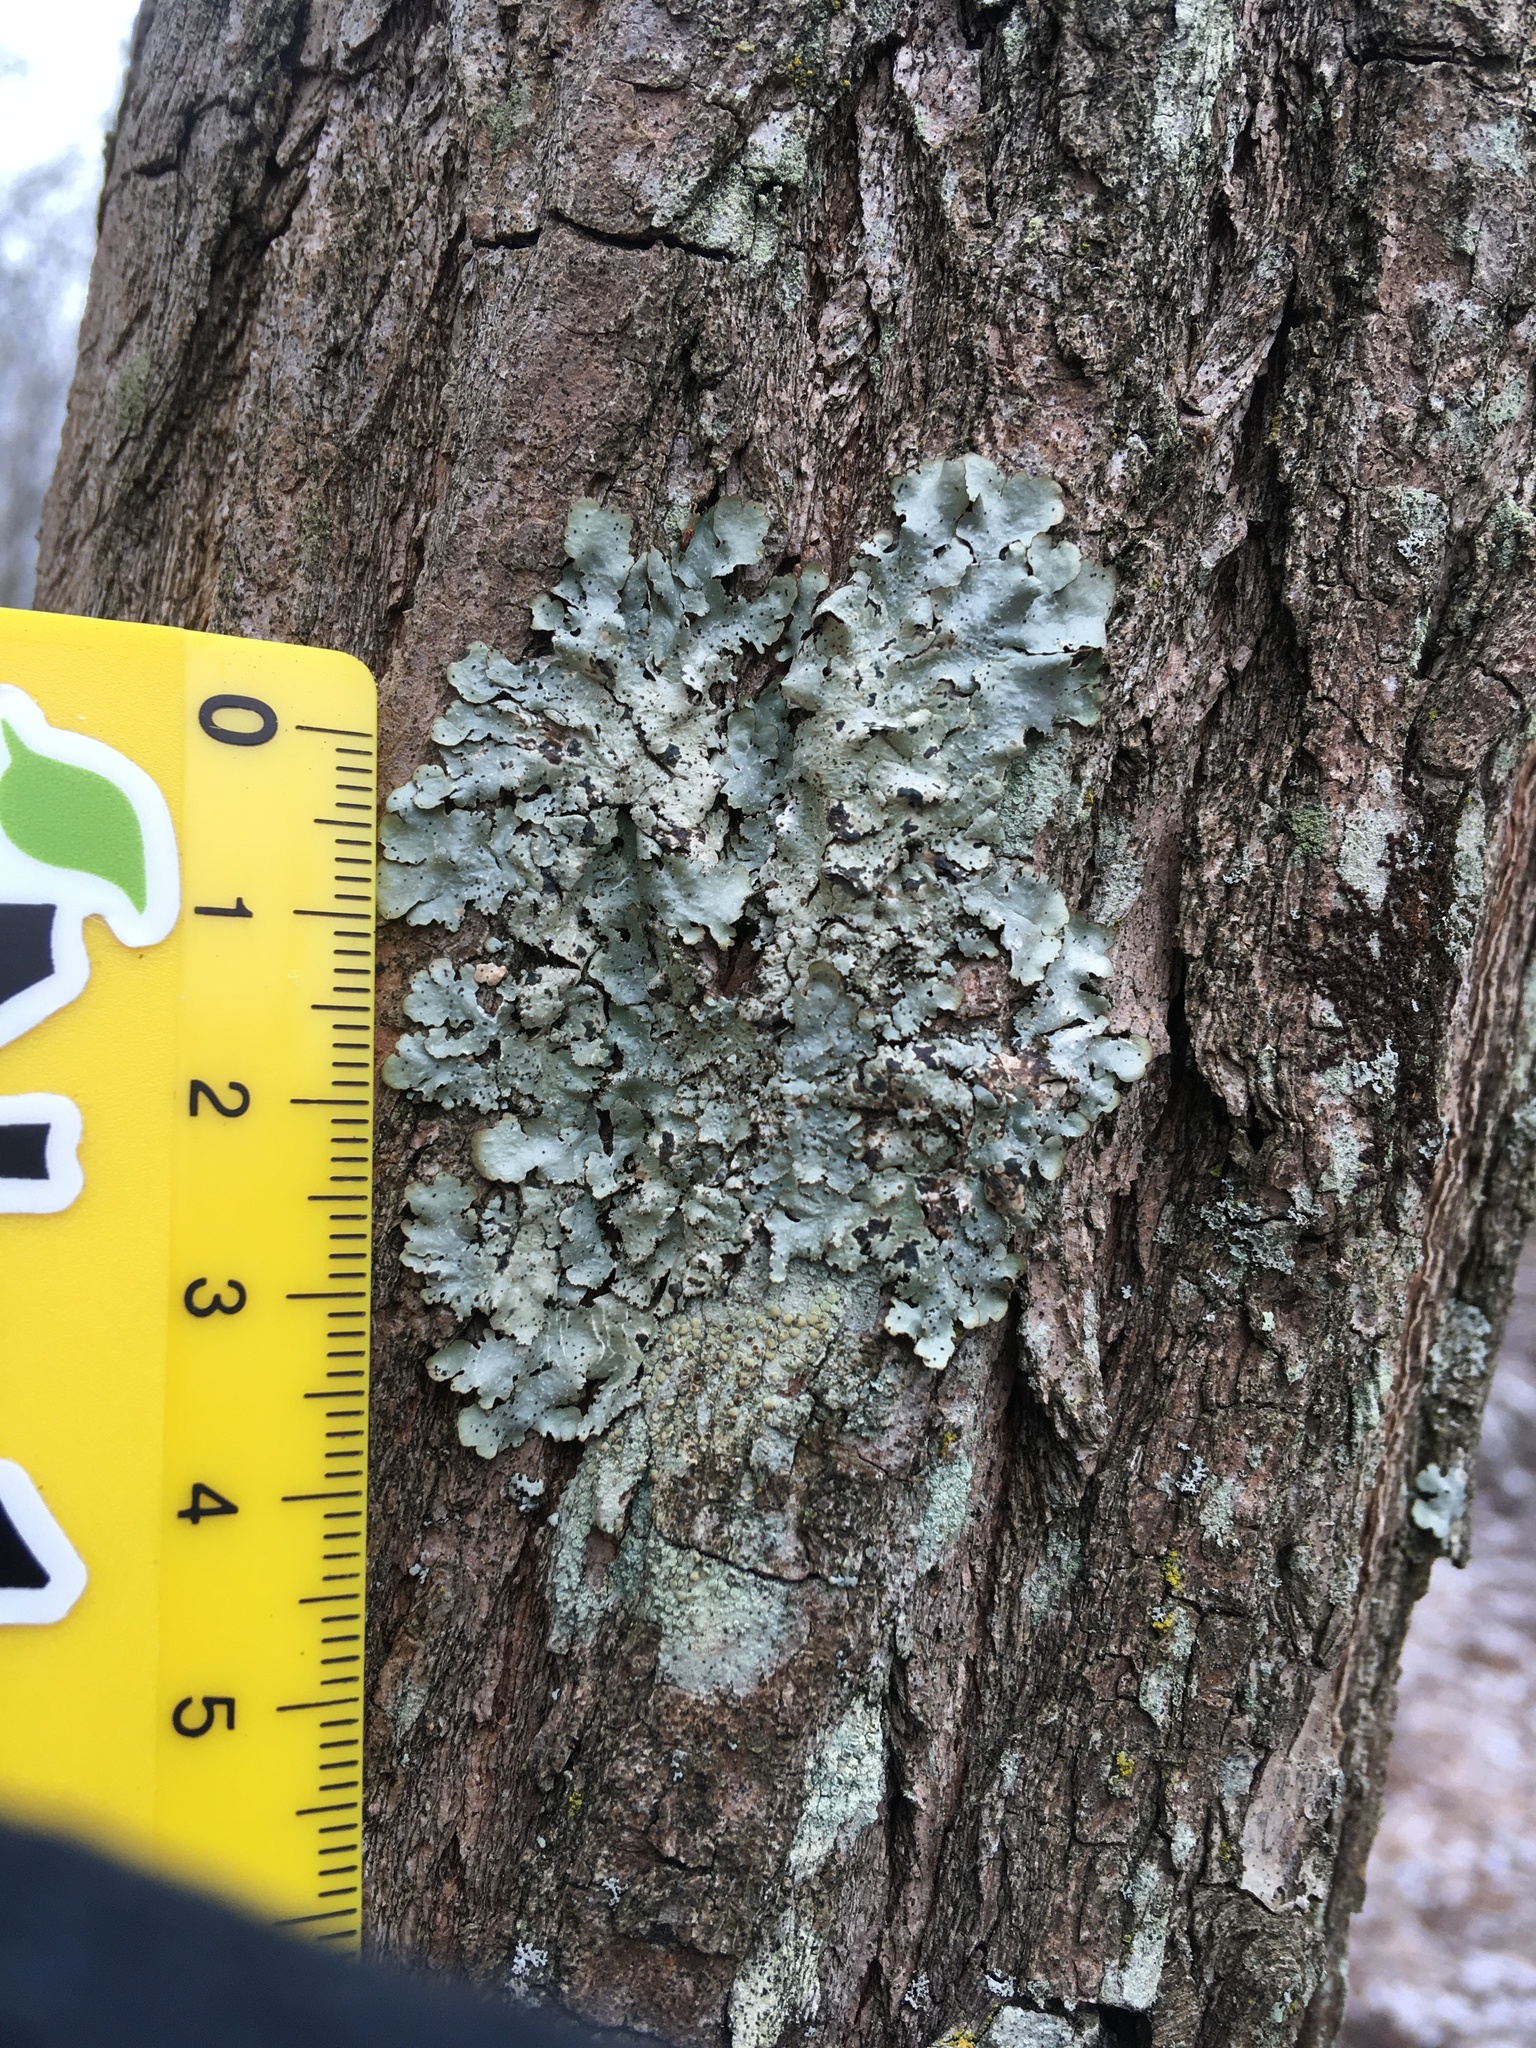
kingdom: Fungi
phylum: Ascomycota
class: Lecanoromycetes
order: Lecanorales
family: Parmeliaceae
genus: Punctelia
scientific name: Punctelia rudecta
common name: Rough speckled shield lichen
